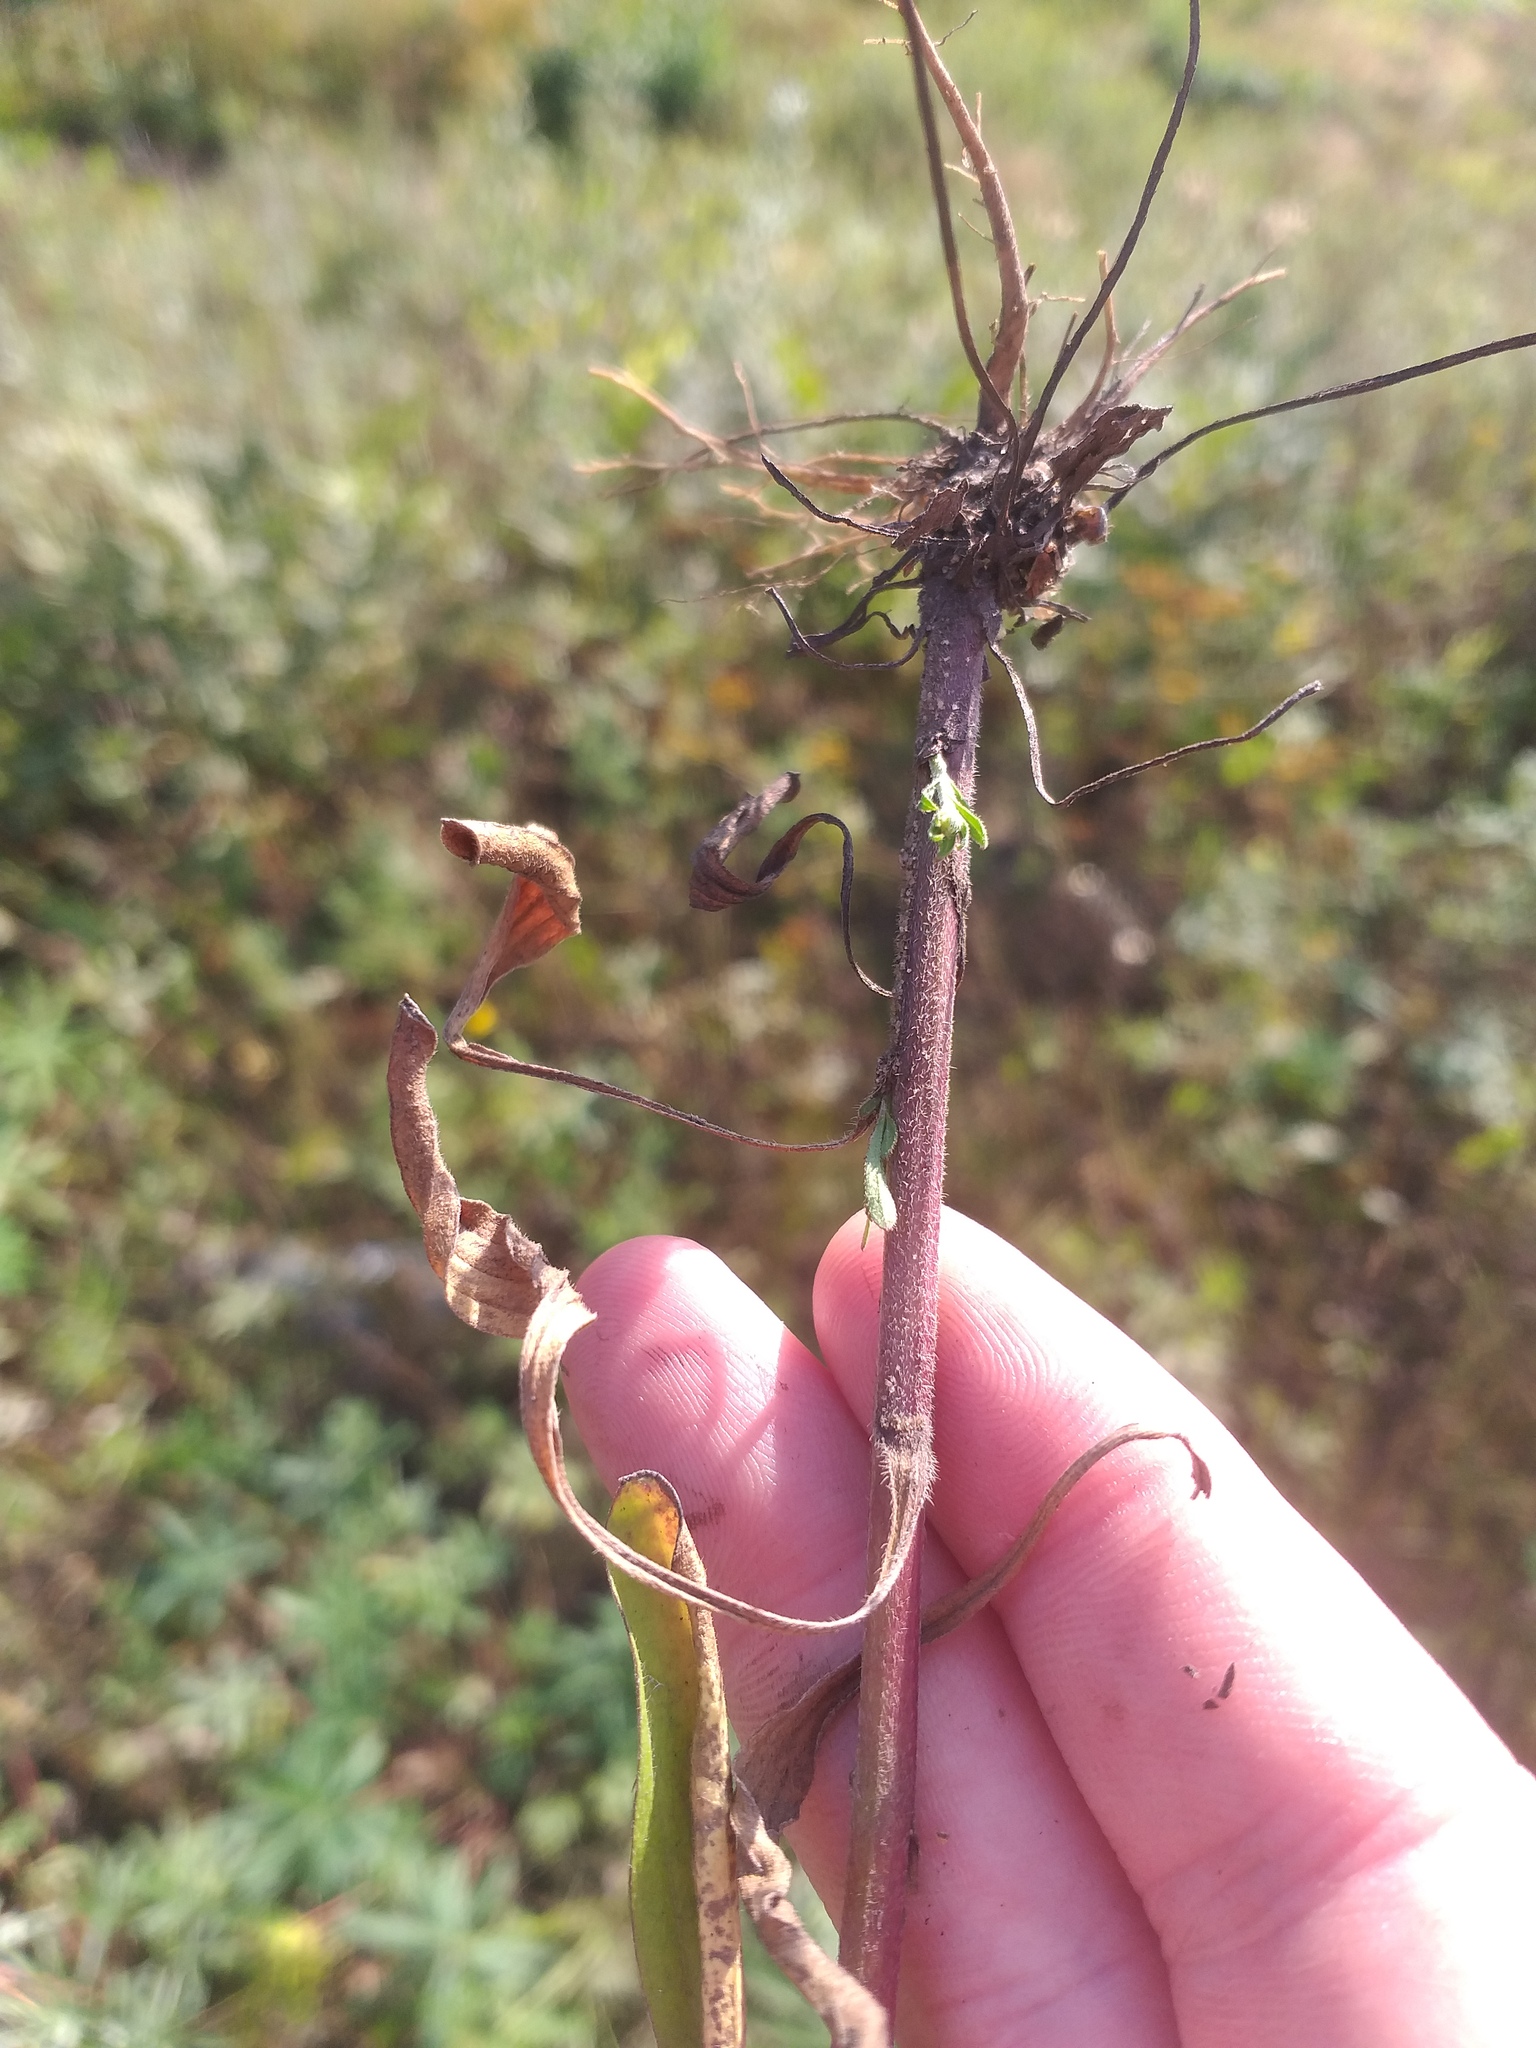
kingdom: Plantae
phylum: Tracheophyta
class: Magnoliopsida
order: Asterales
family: Asteraceae
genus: Erigeron
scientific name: Erigeron annuus
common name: Tall fleabane
